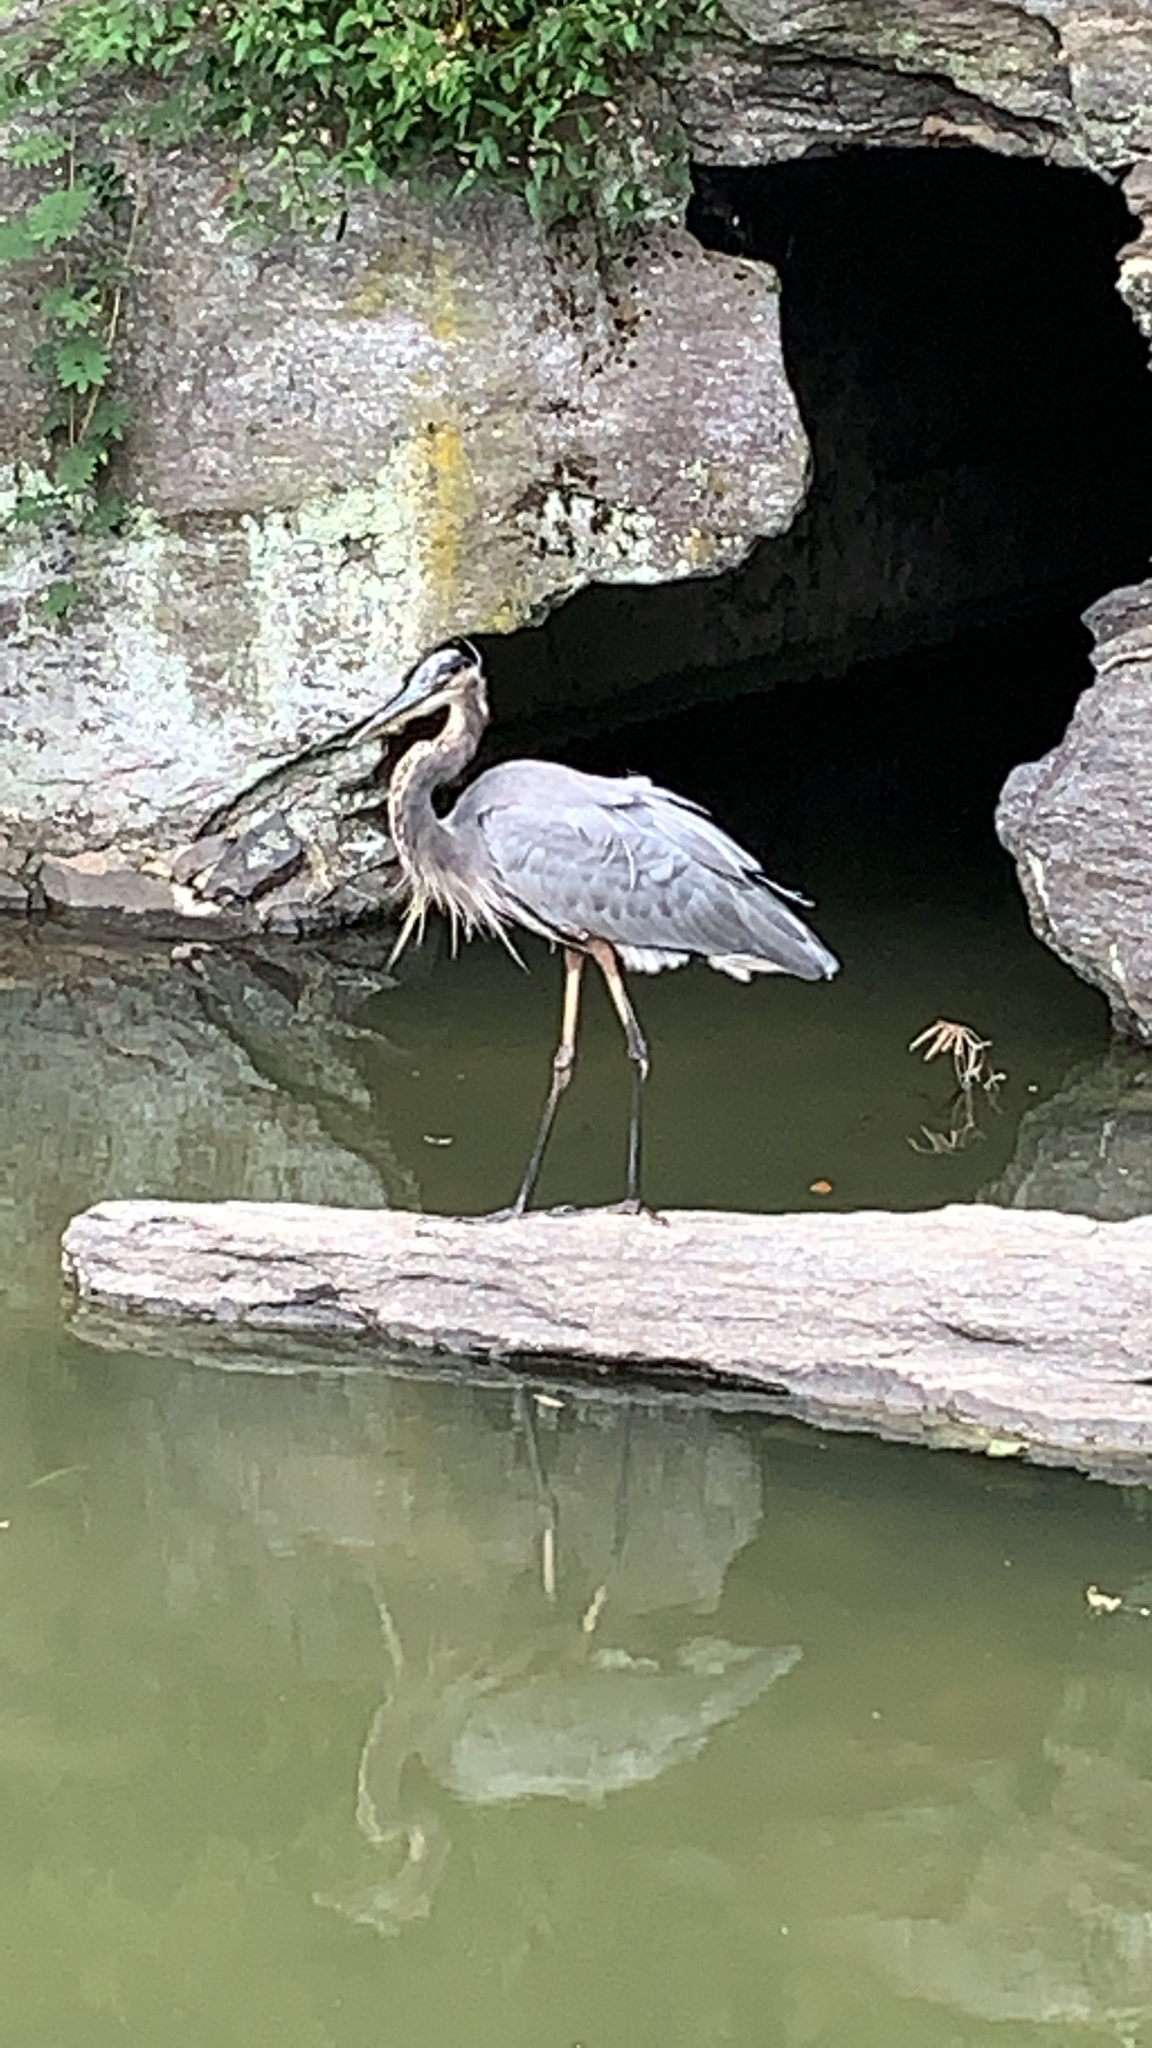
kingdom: Animalia
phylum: Chordata
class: Aves
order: Pelecaniformes
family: Ardeidae
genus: Ardea
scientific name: Ardea herodias
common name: Great blue heron
